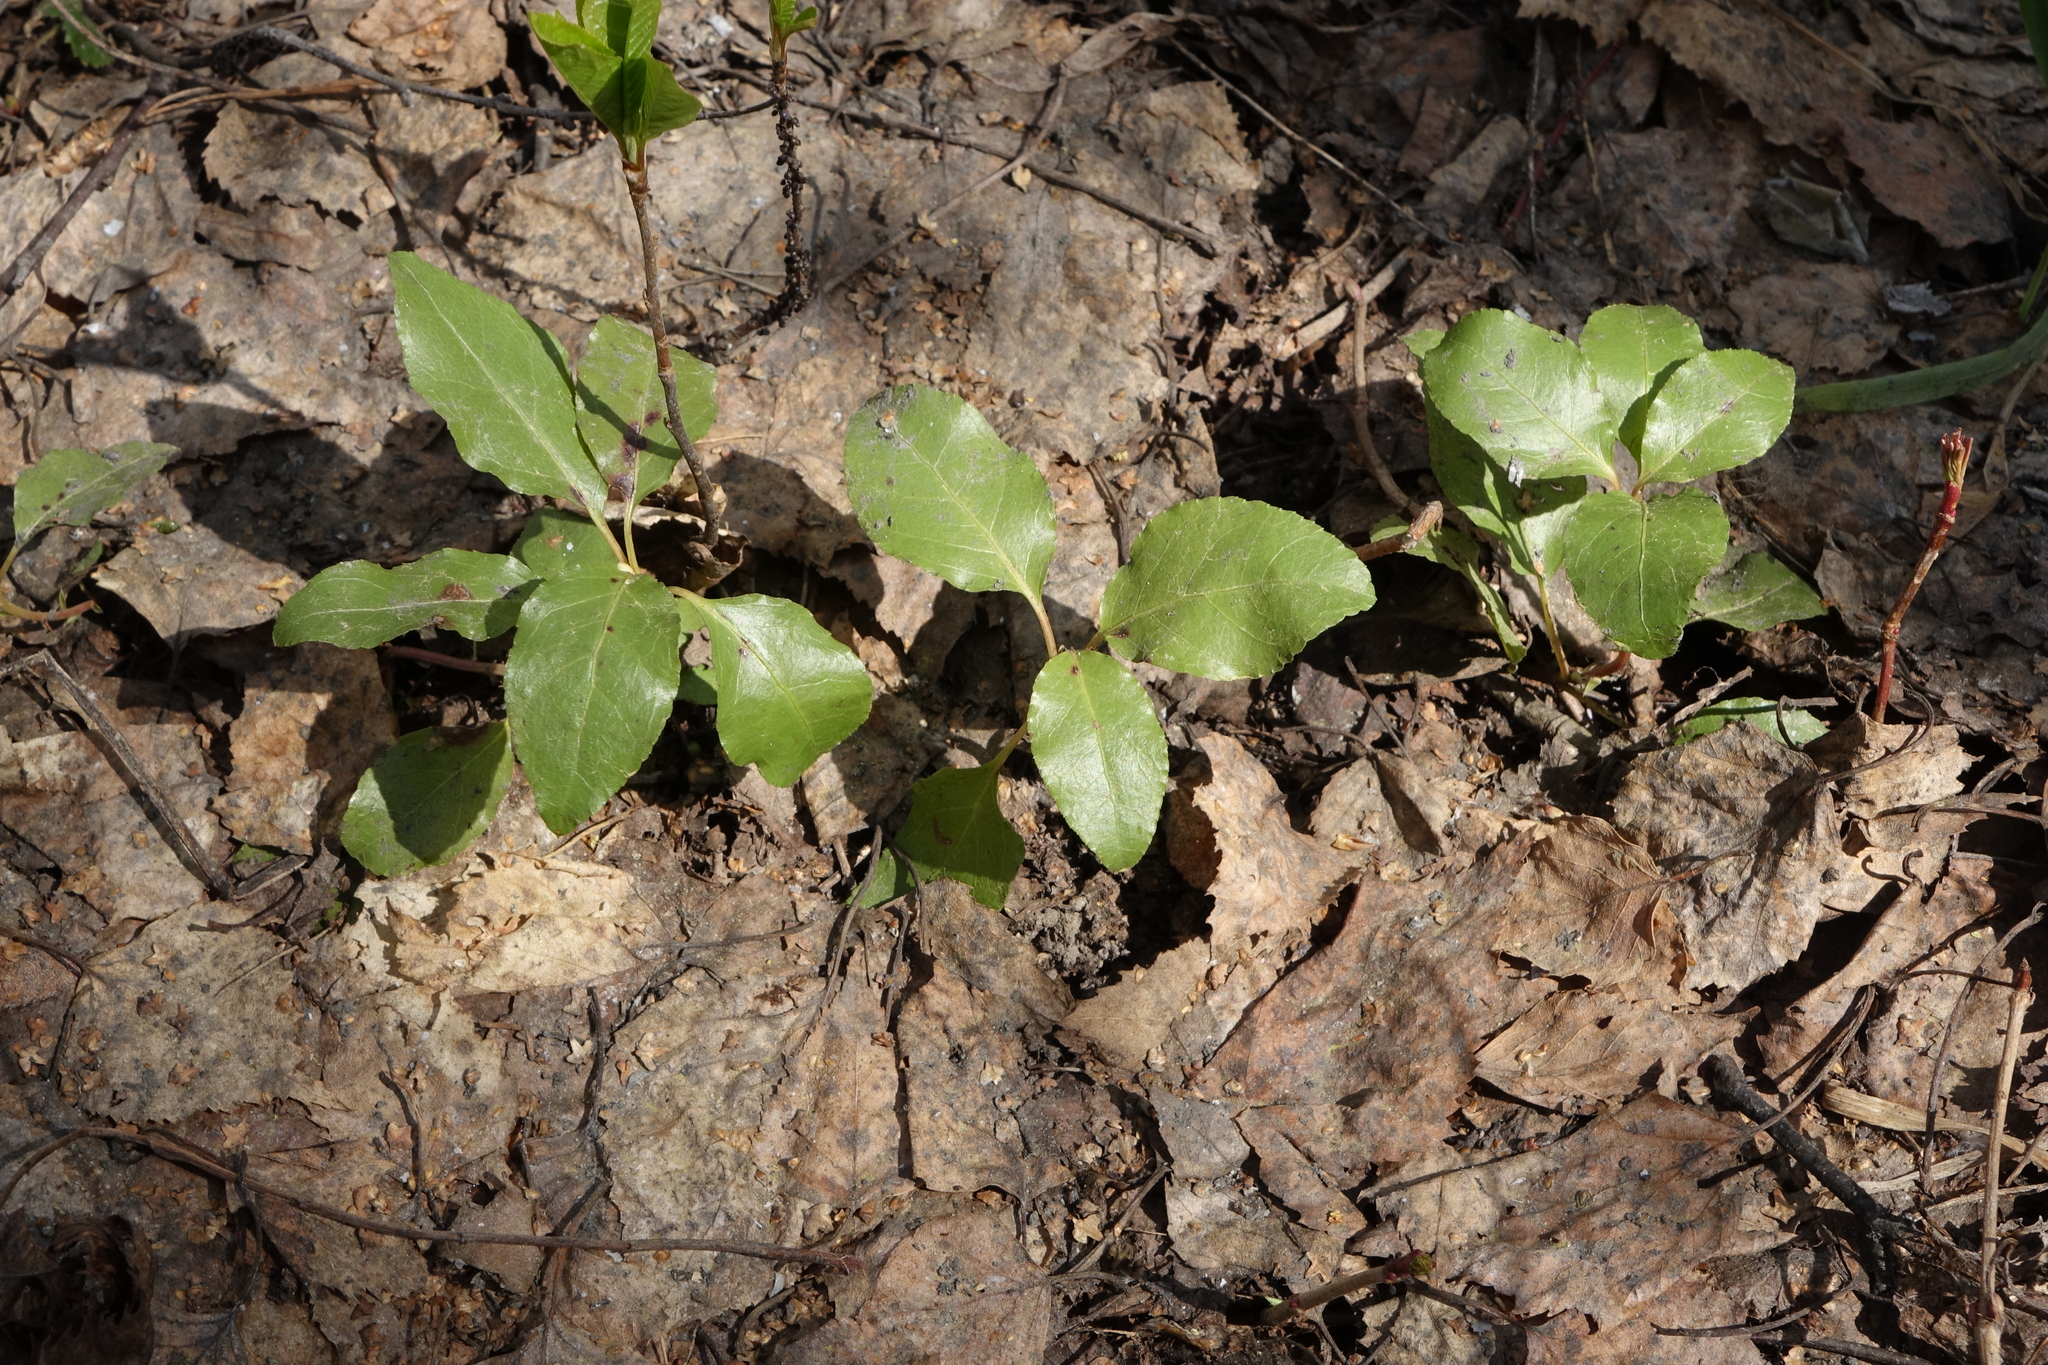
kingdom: Plantae
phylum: Tracheophyta
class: Magnoliopsida
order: Ericales
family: Ericaceae
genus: Orthilia
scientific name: Orthilia secunda
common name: One-sided orthilia
